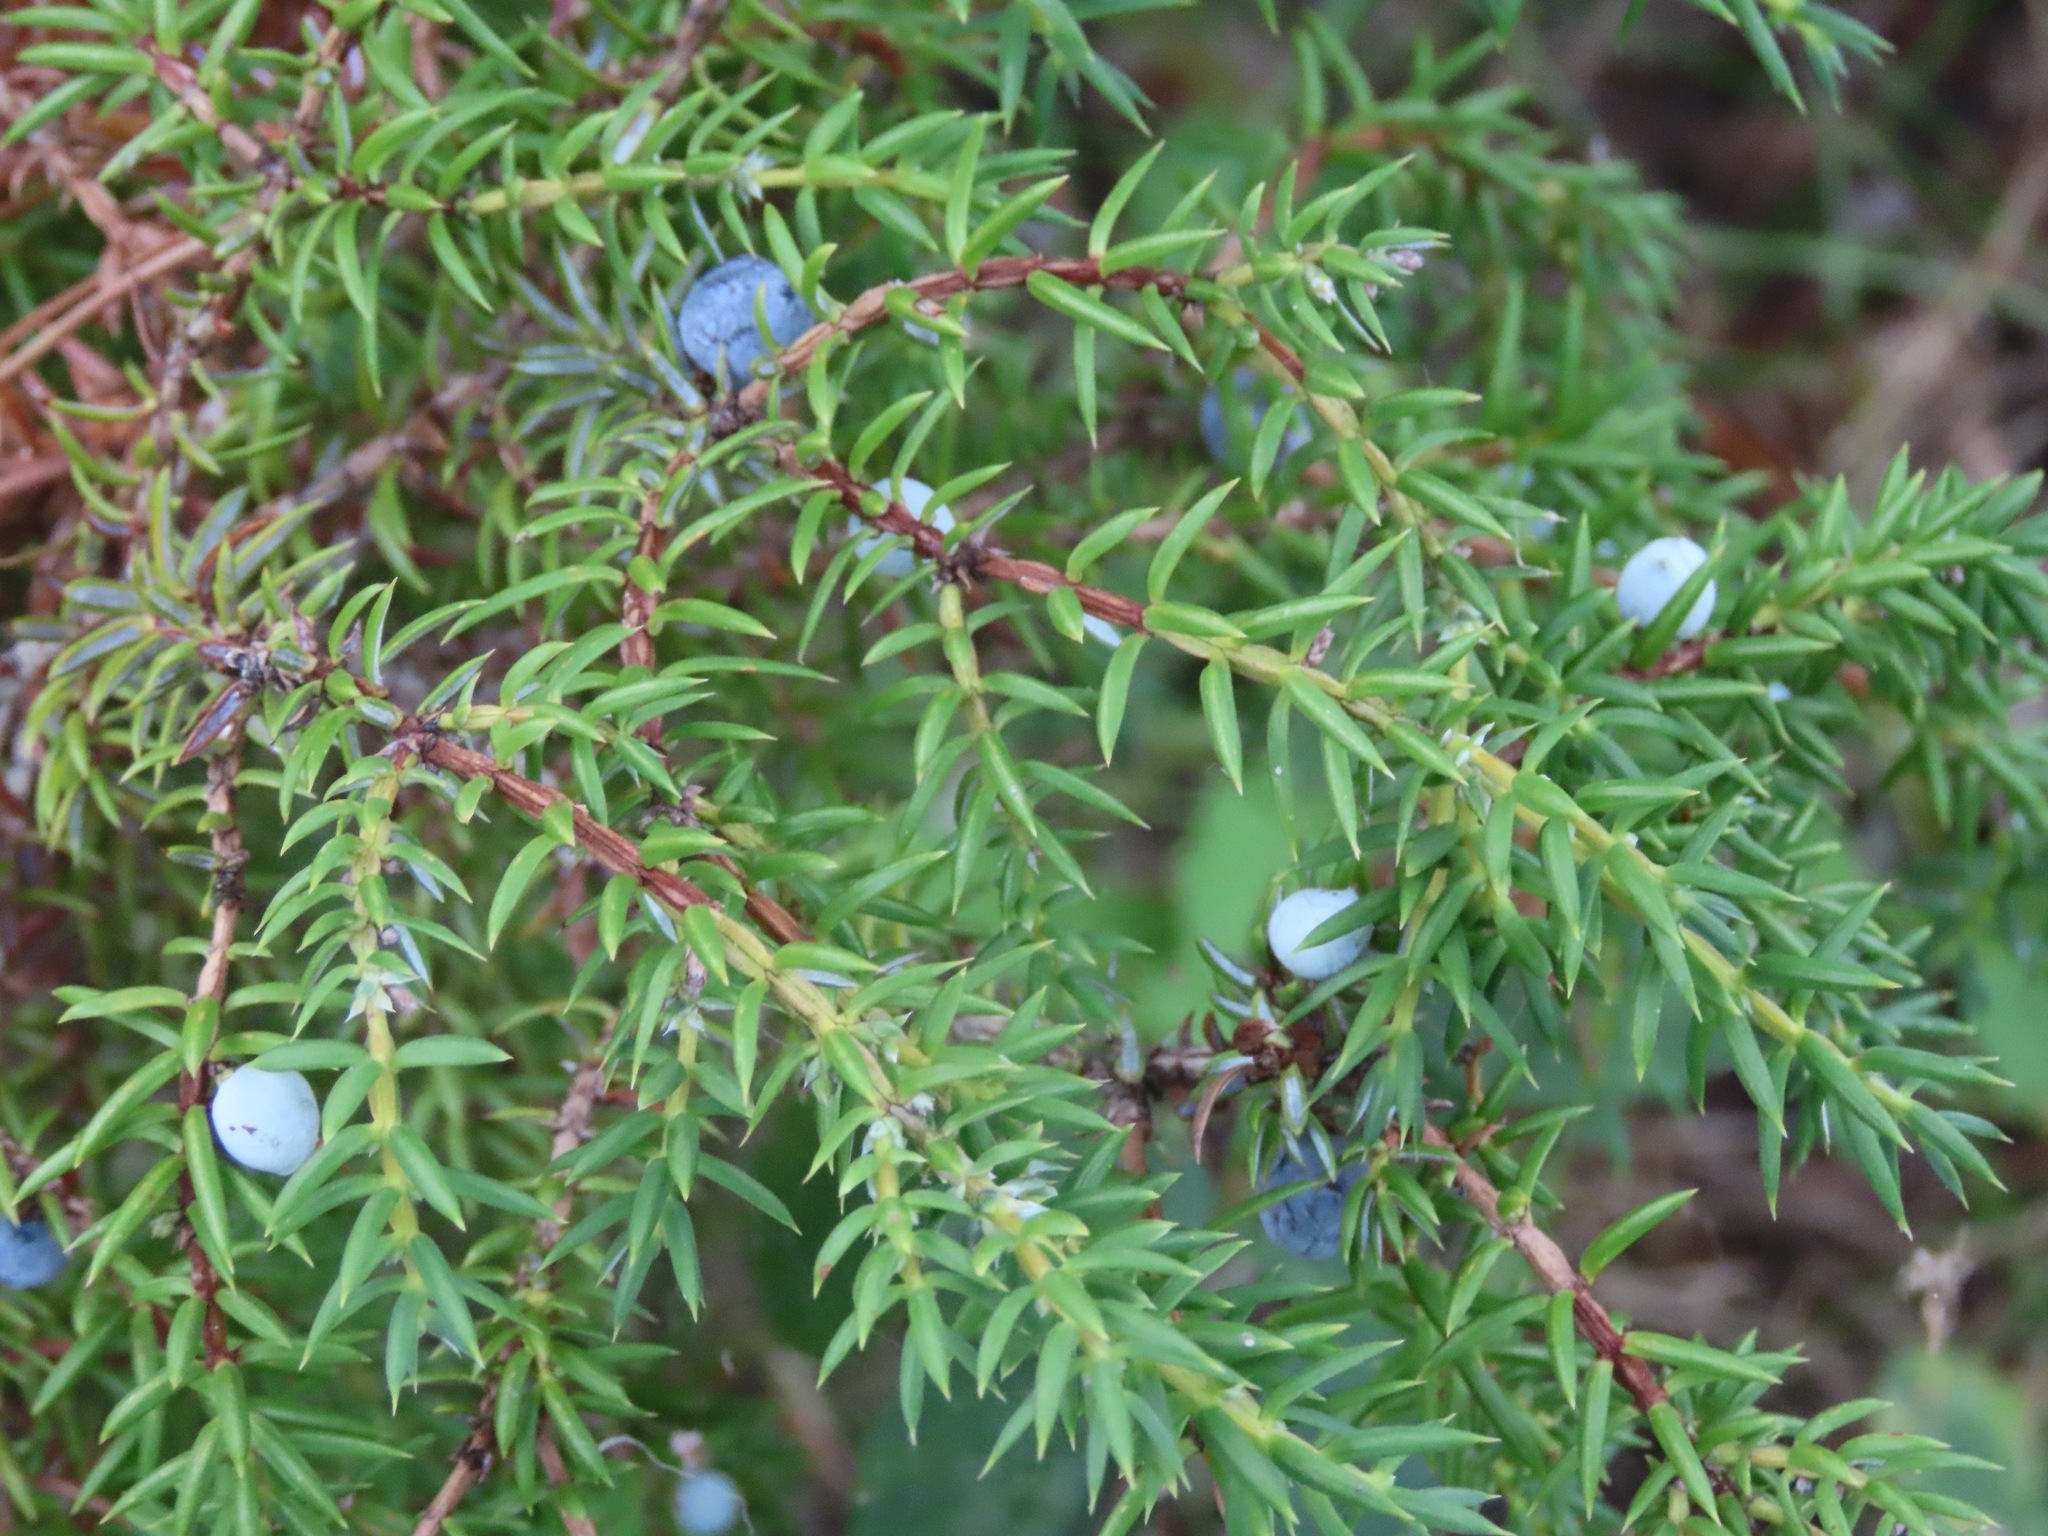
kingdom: Plantae
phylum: Tracheophyta
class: Pinopsida
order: Pinales
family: Cupressaceae
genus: Juniperus
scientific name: Juniperus communis
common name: Common juniper
